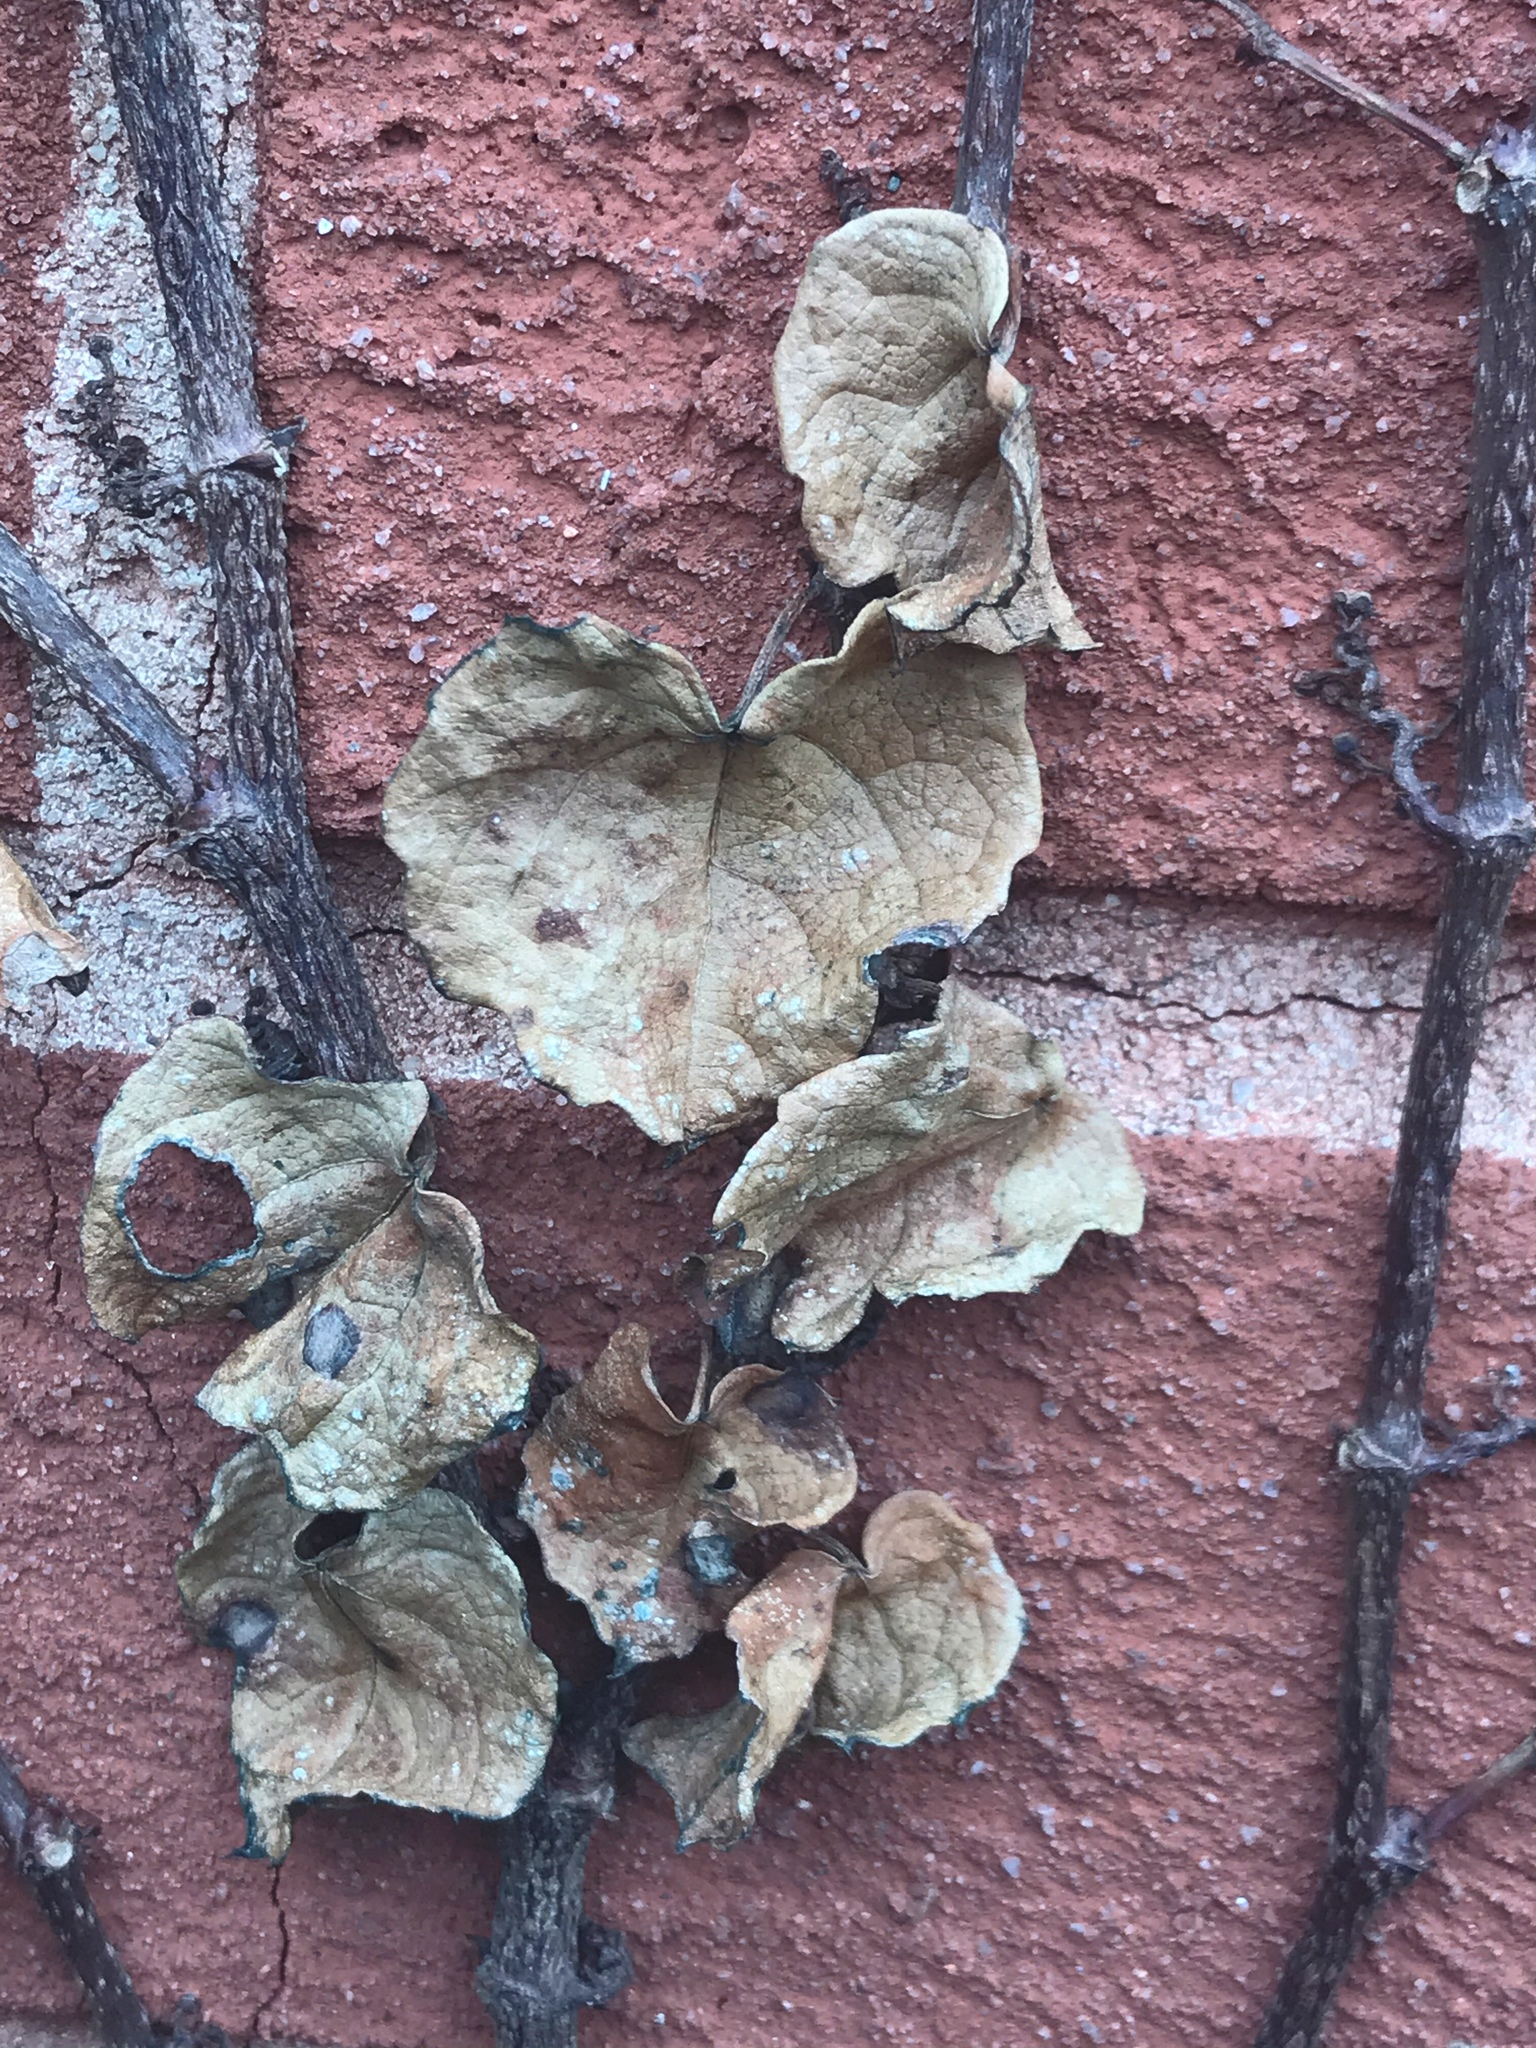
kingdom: Plantae
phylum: Tracheophyta
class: Magnoliopsida
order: Vitales
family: Vitaceae
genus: Parthenocissus
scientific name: Parthenocissus tricuspidata
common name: Boston ivy
